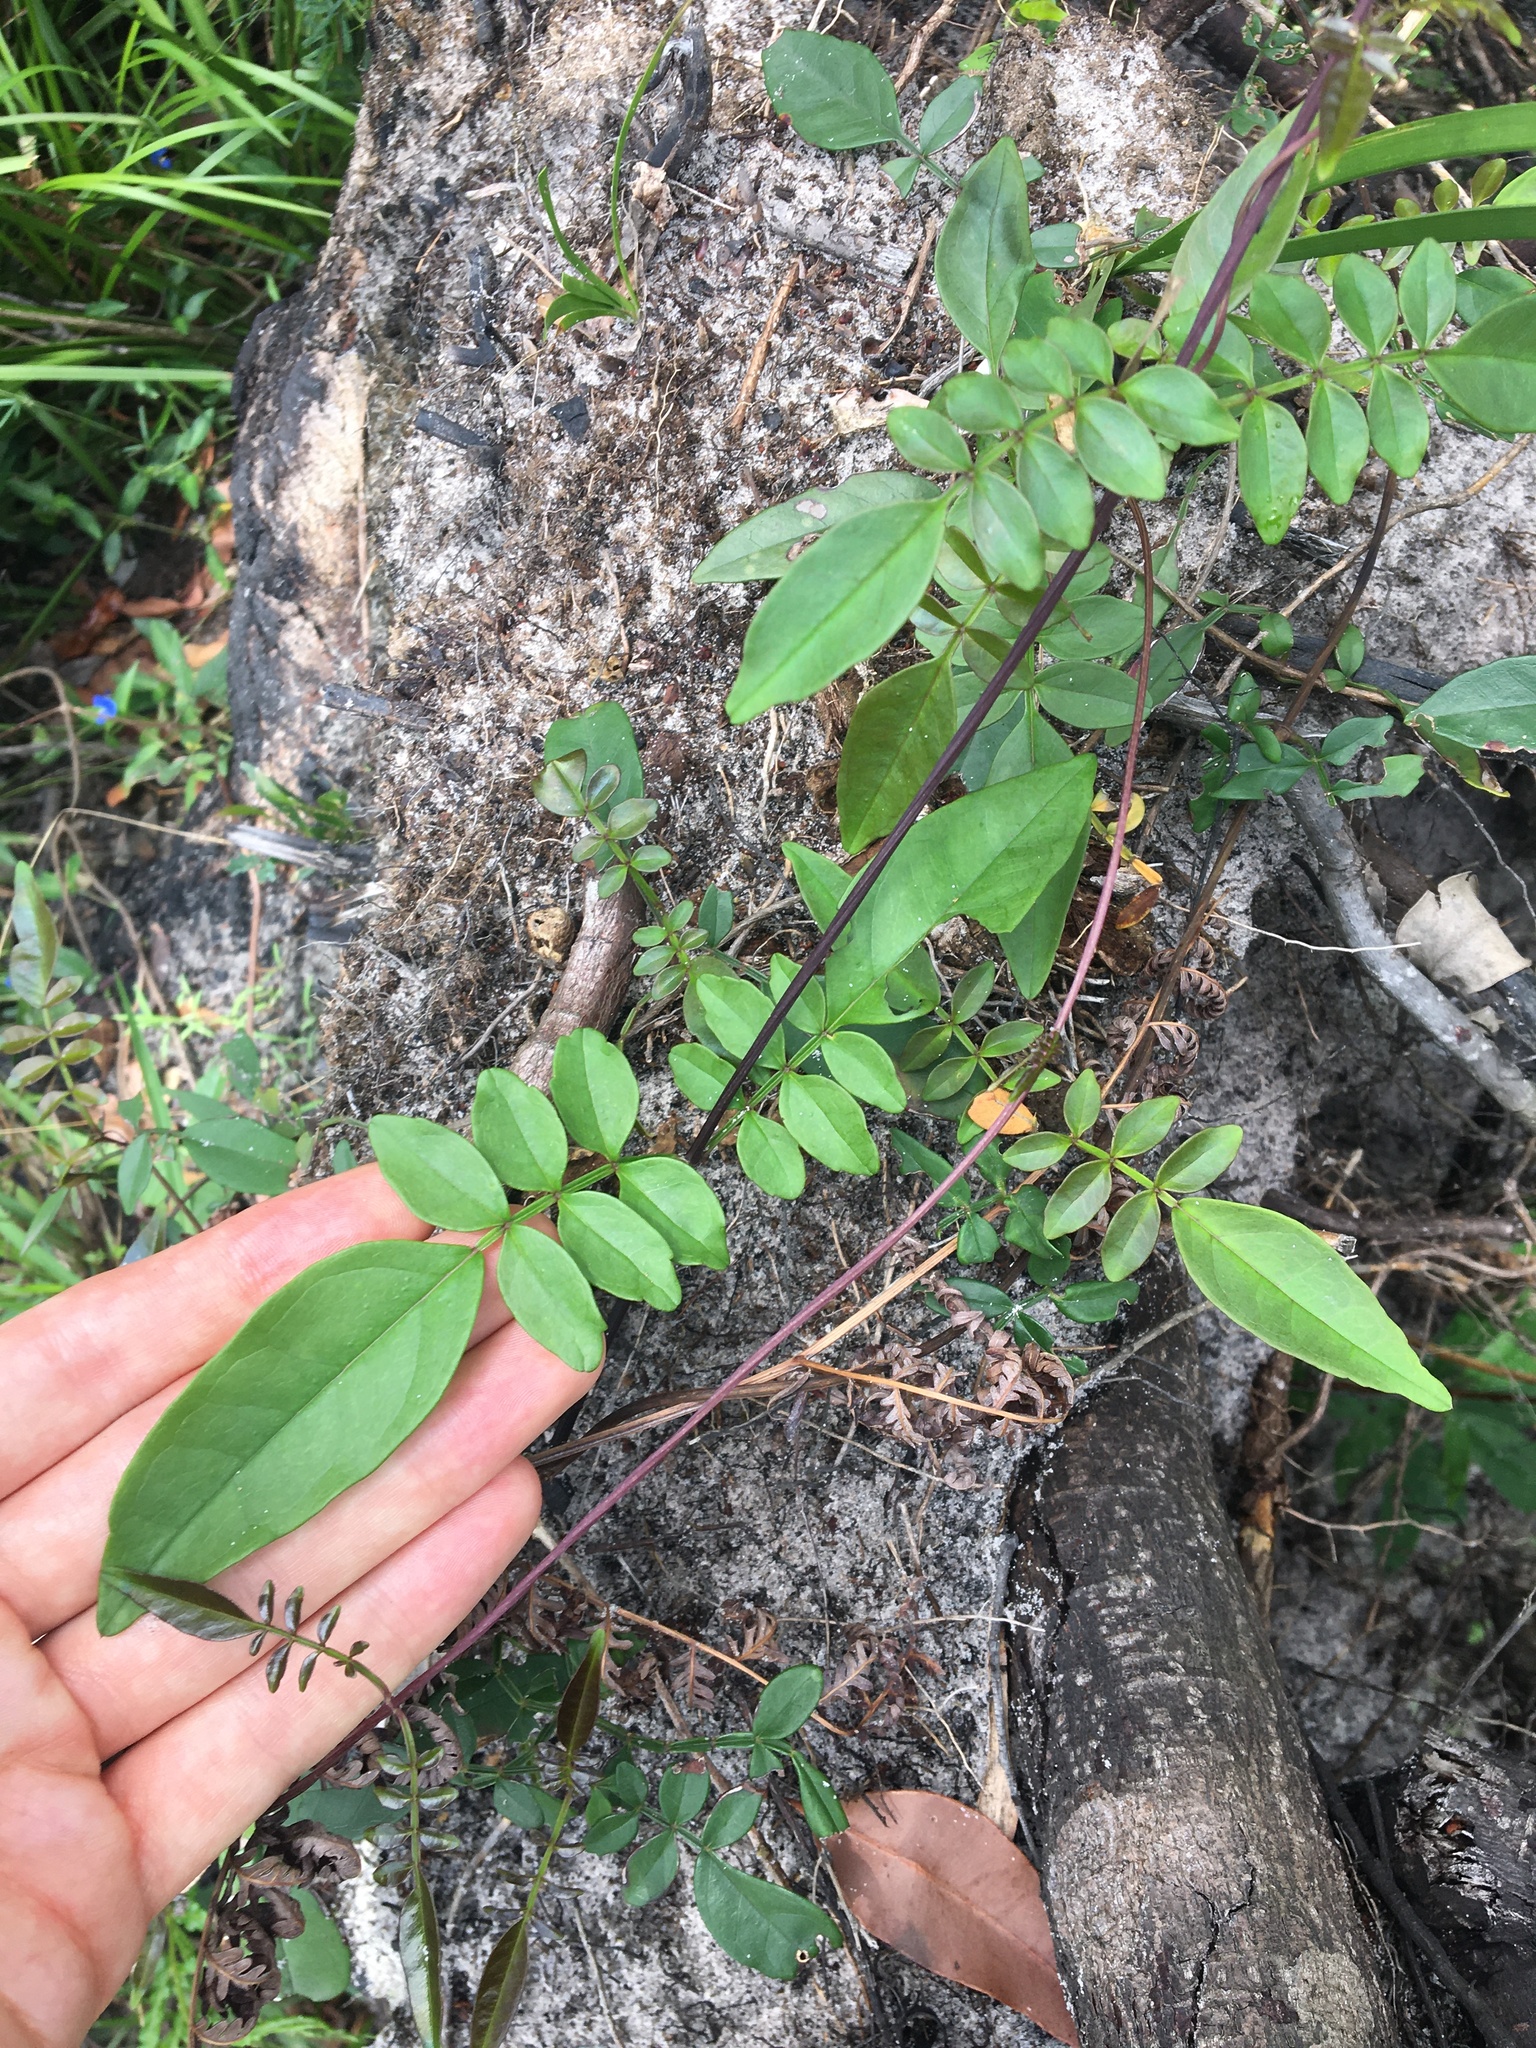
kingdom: Plantae
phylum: Tracheophyta
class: Magnoliopsida
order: Lamiales
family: Bignoniaceae
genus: Pandorea
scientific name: Pandorea pandorana
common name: Wonga-wonga-vine
